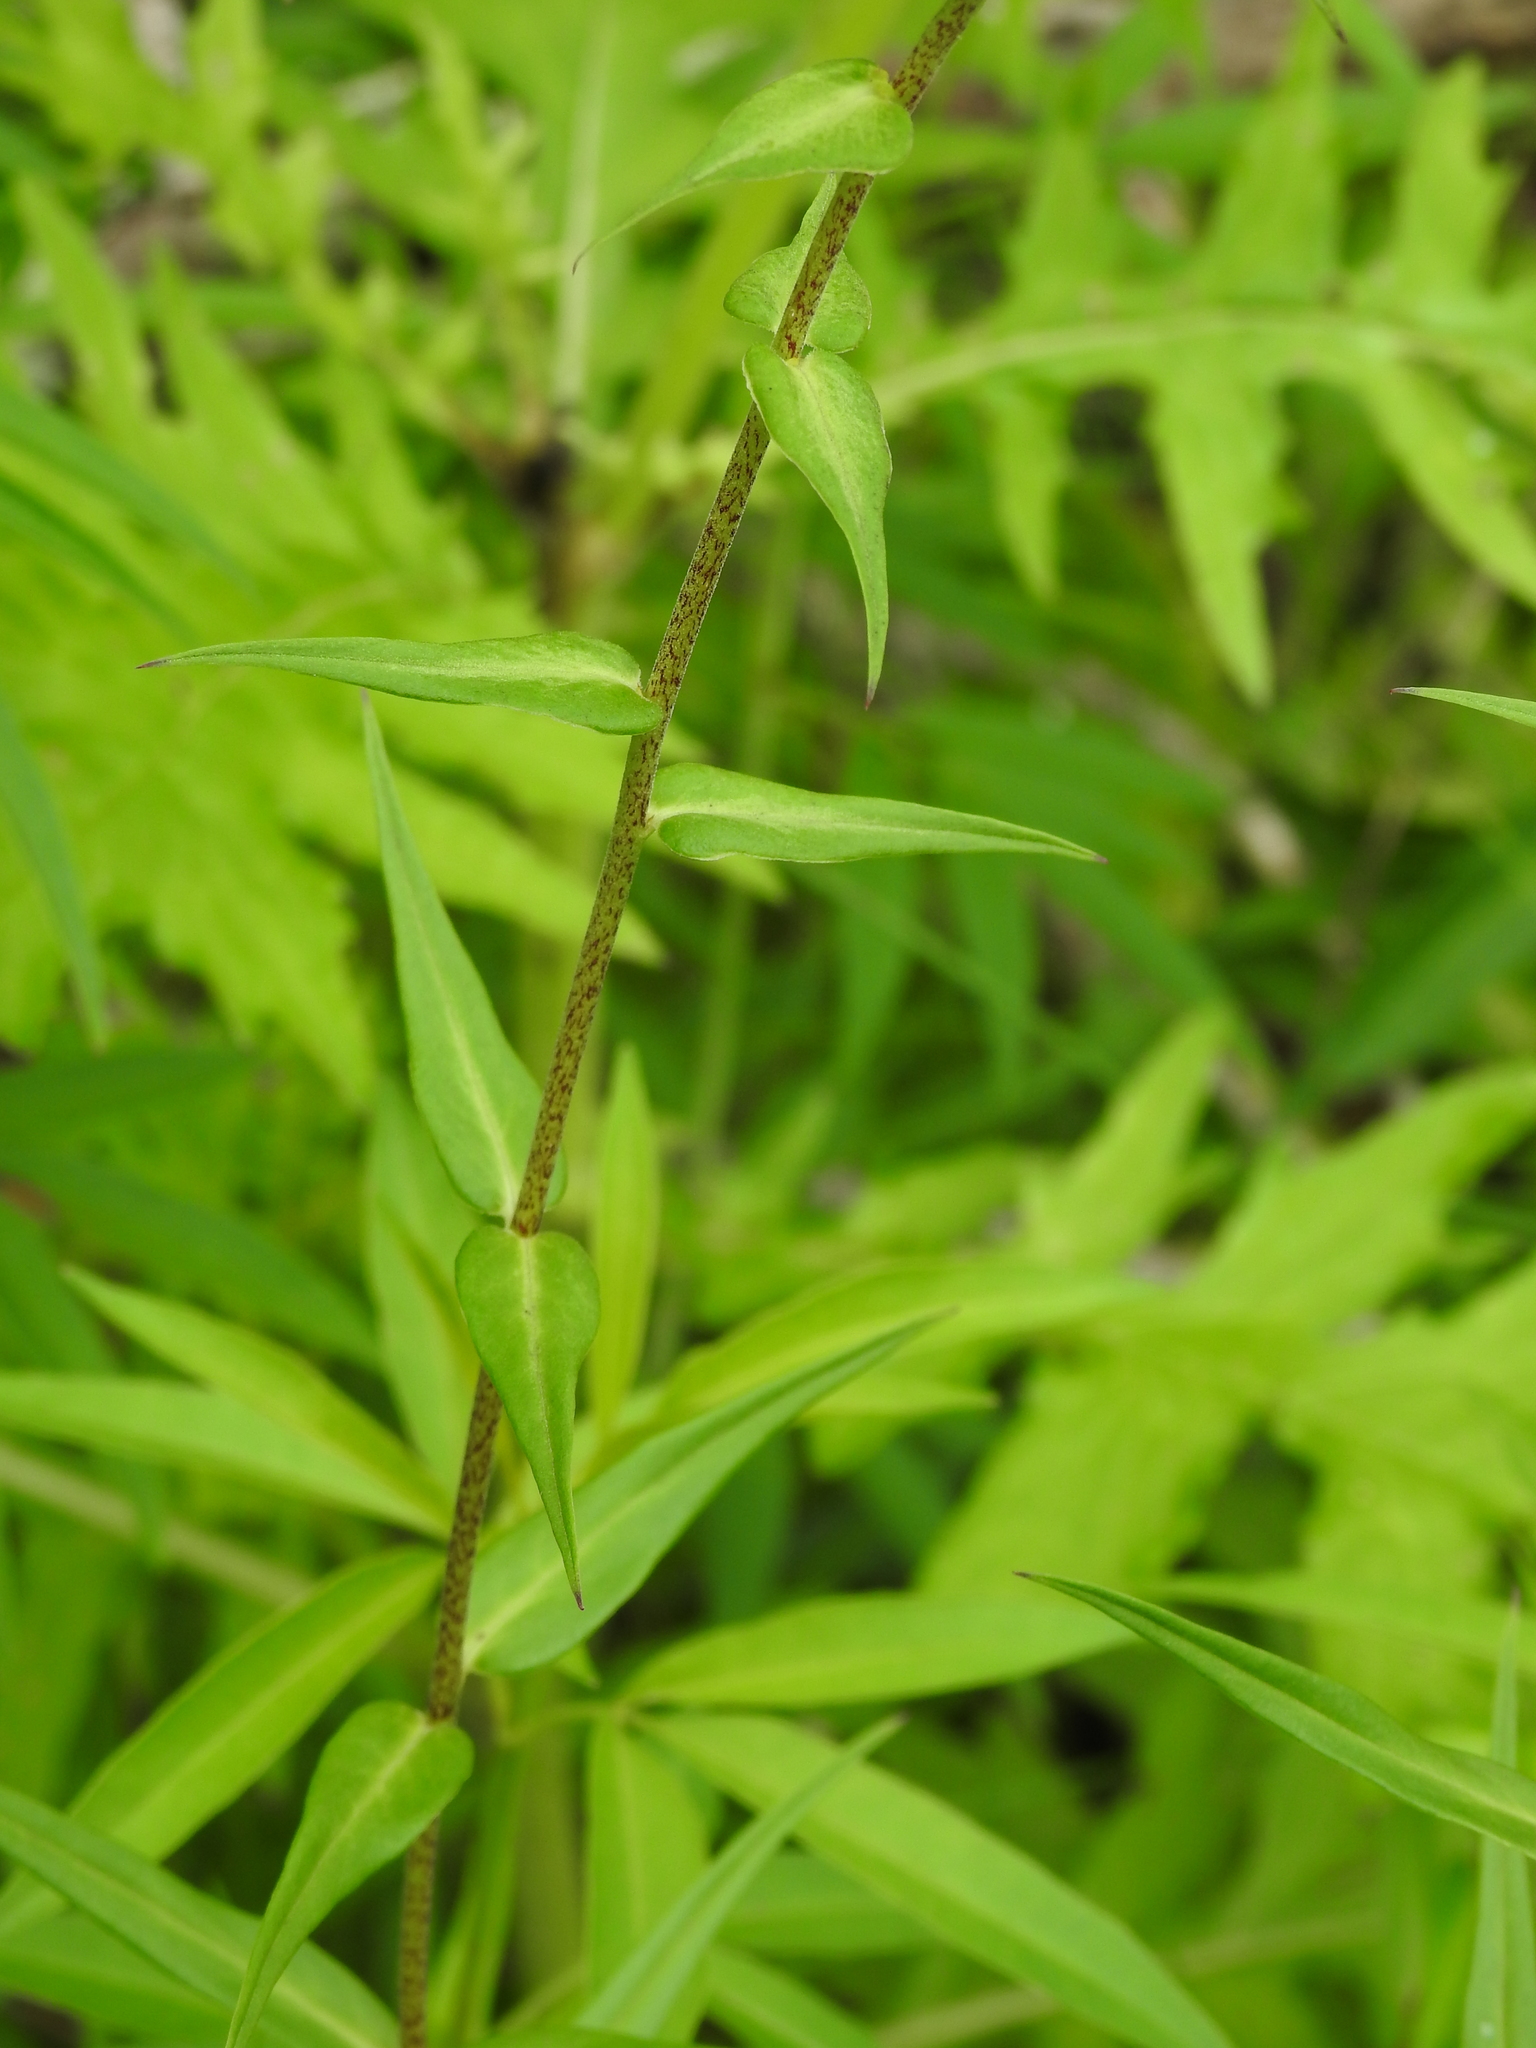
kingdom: Plantae
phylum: Tracheophyta
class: Magnoliopsida
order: Ericales
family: Polemoniaceae
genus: Phlox
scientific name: Phlox maculata
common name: Meadow phlox
